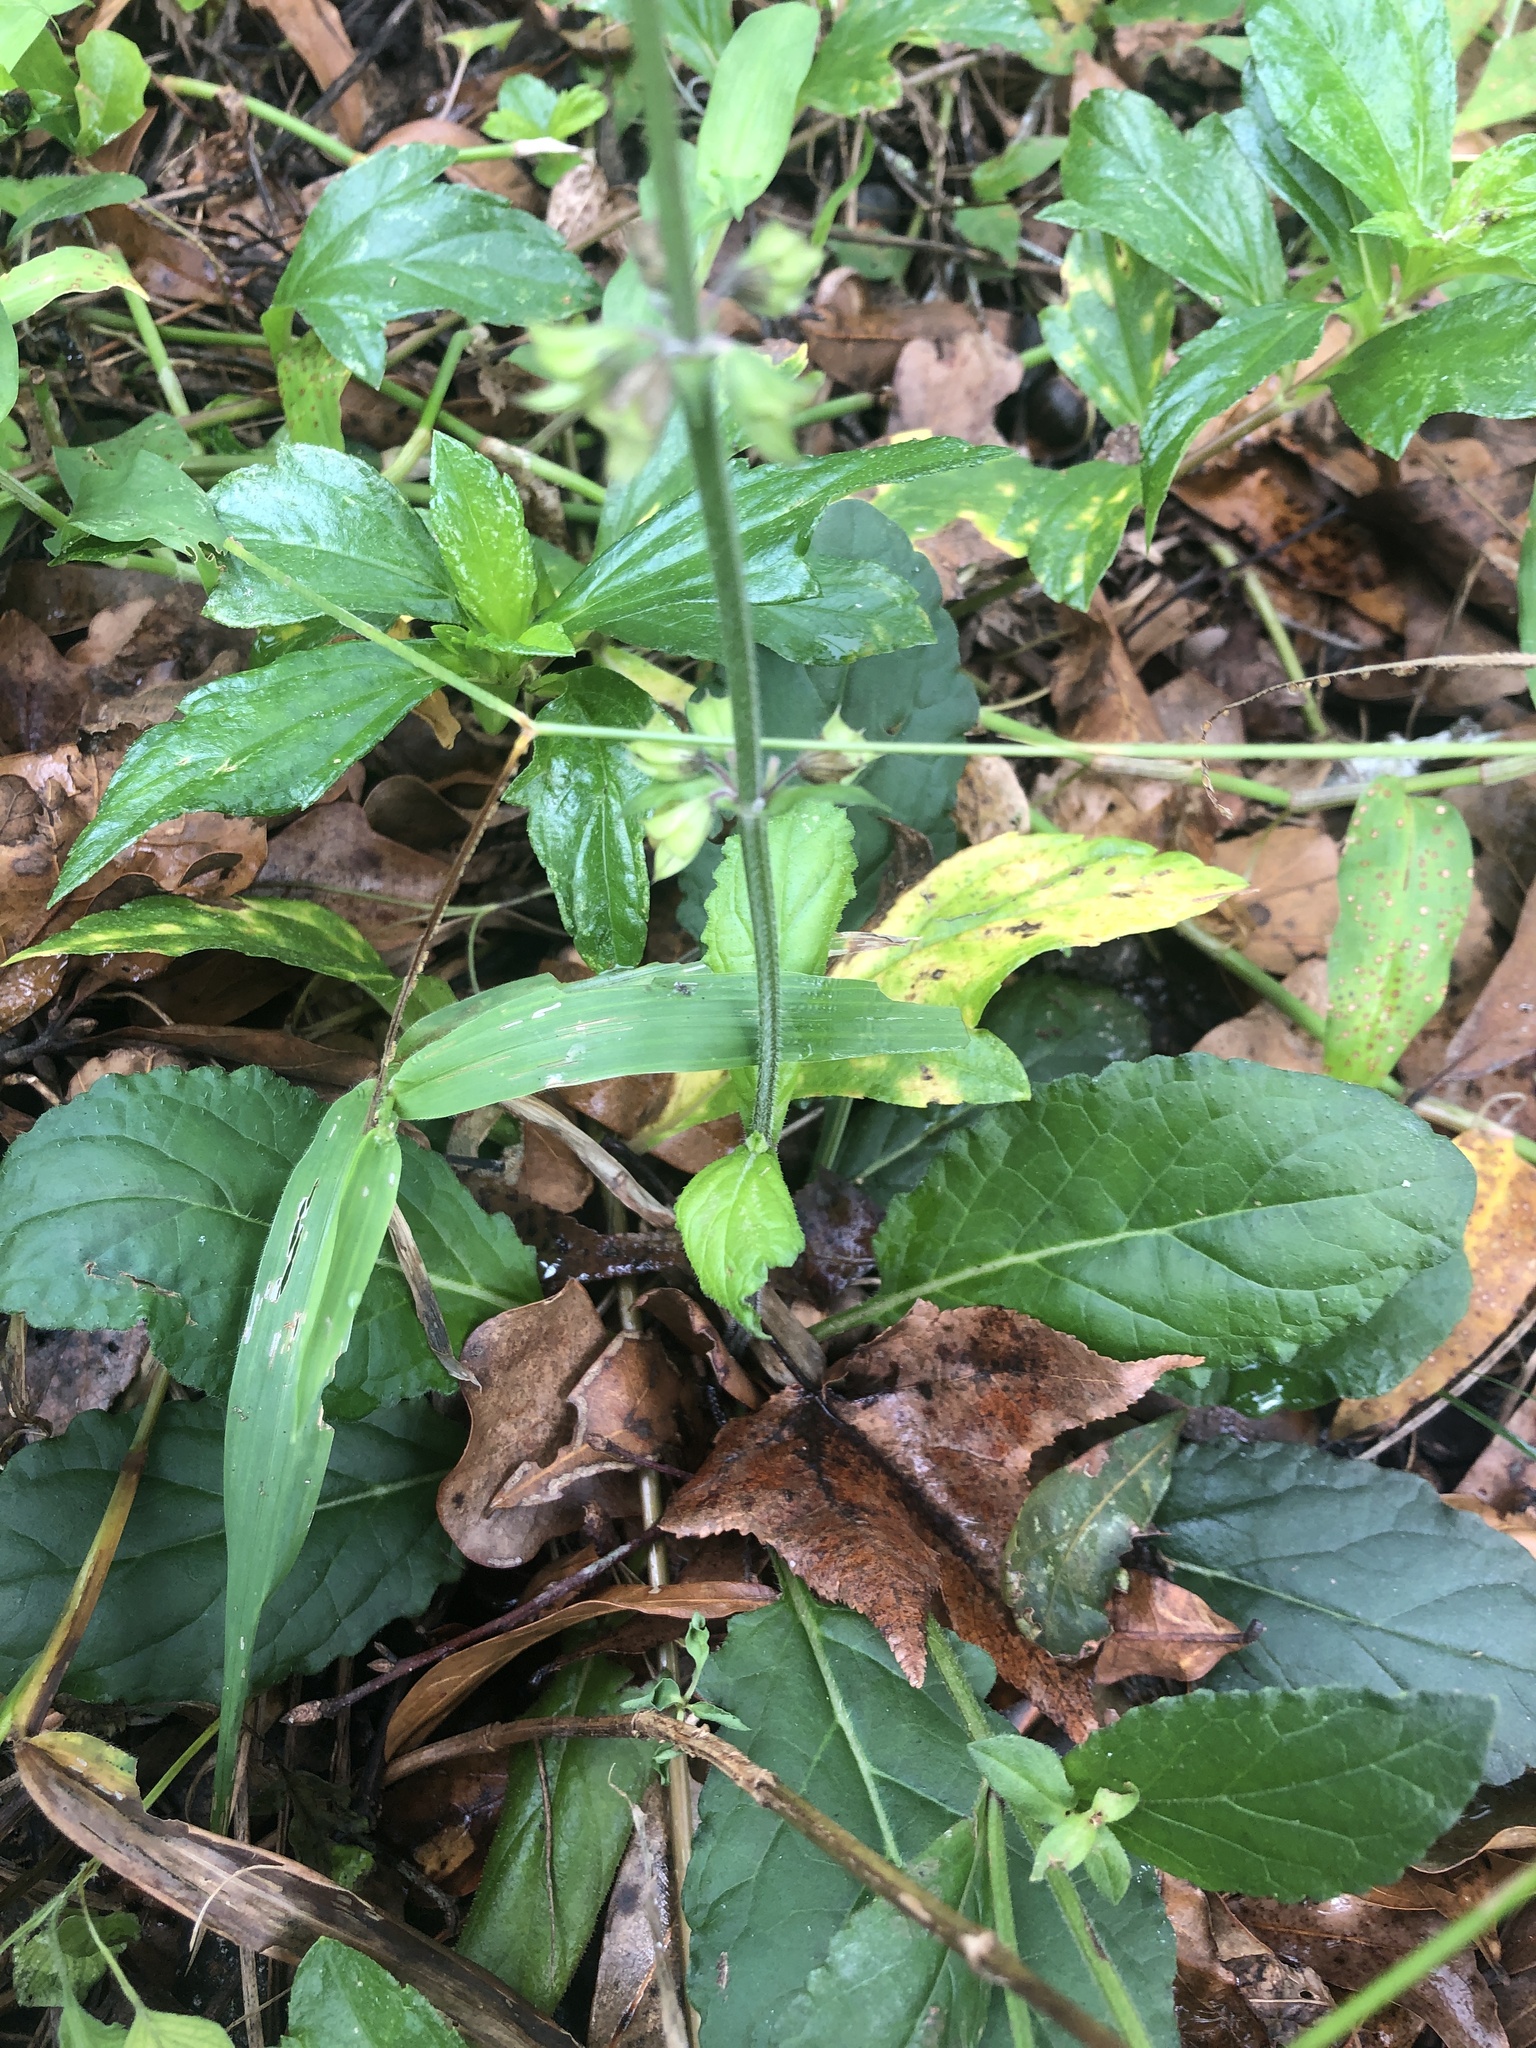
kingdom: Plantae
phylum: Tracheophyta
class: Magnoliopsida
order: Lamiales
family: Lamiaceae
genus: Salvia
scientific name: Salvia lyrata
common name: Cancerweed
